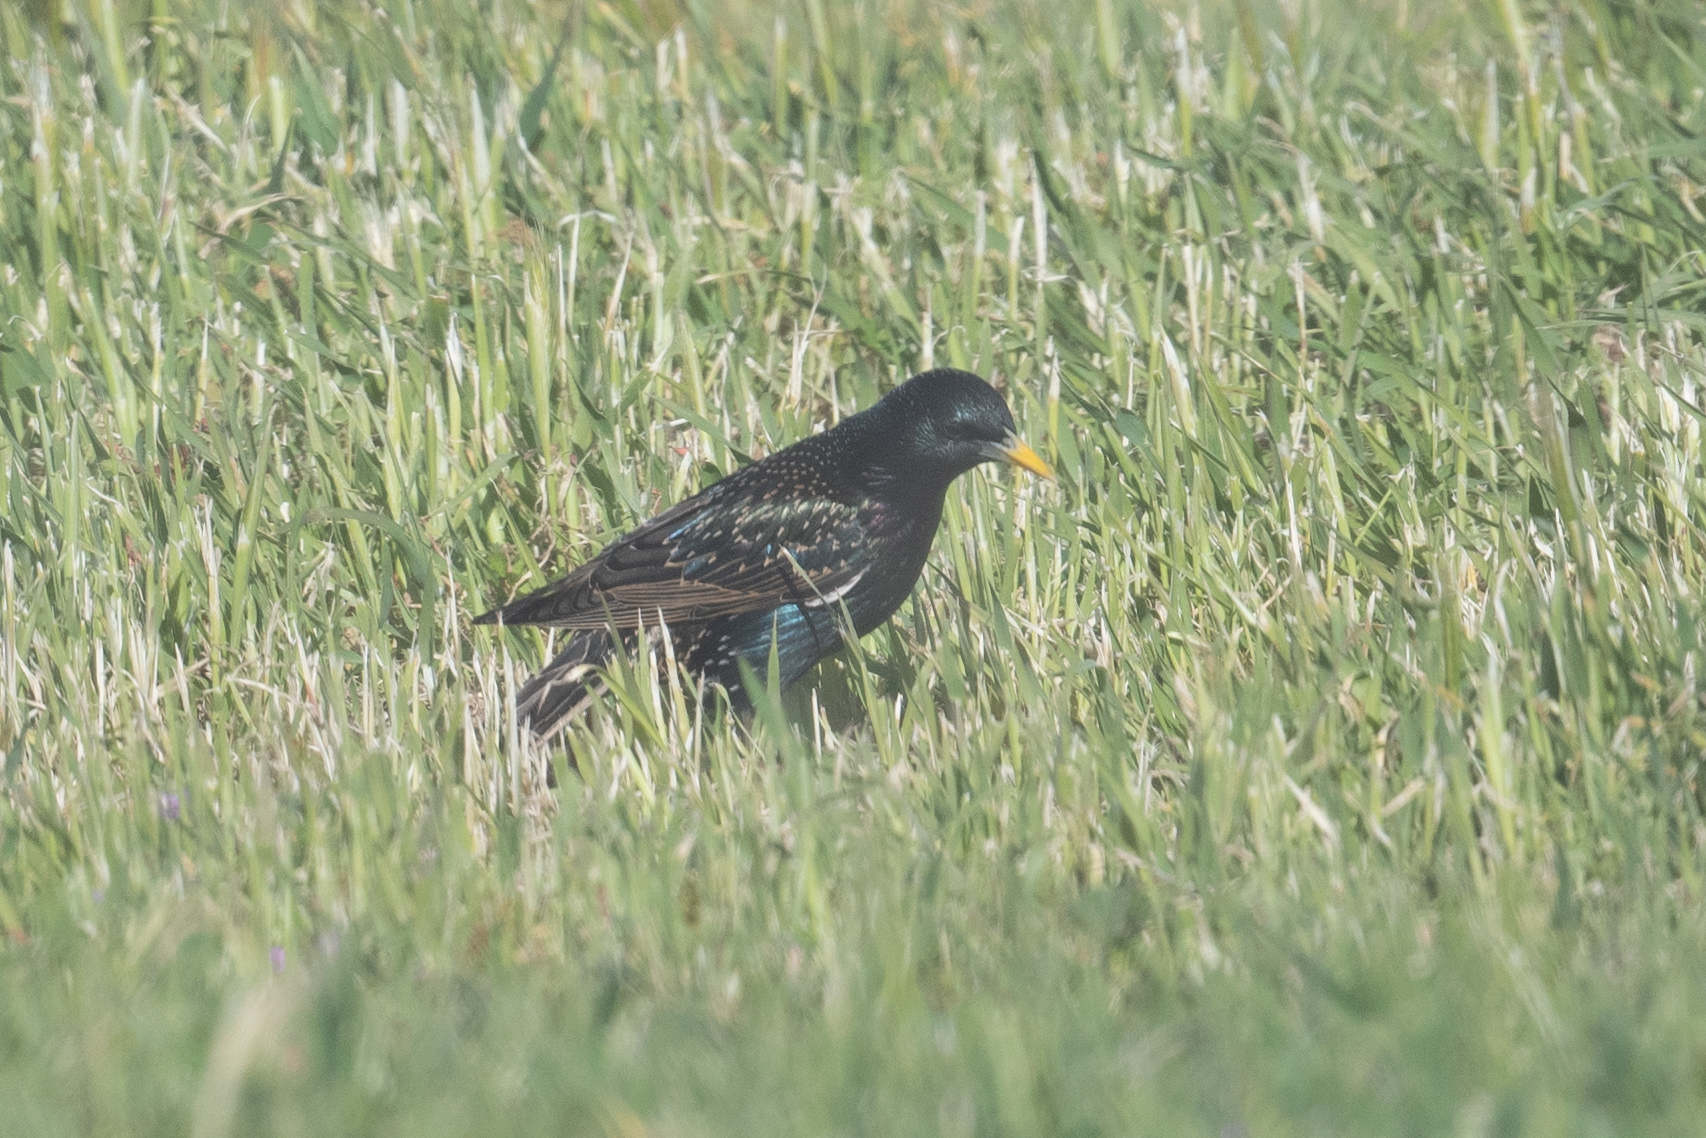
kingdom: Animalia
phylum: Chordata
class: Aves
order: Passeriformes
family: Sturnidae
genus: Sturnus
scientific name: Sturnus vulgaris
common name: Common starling
